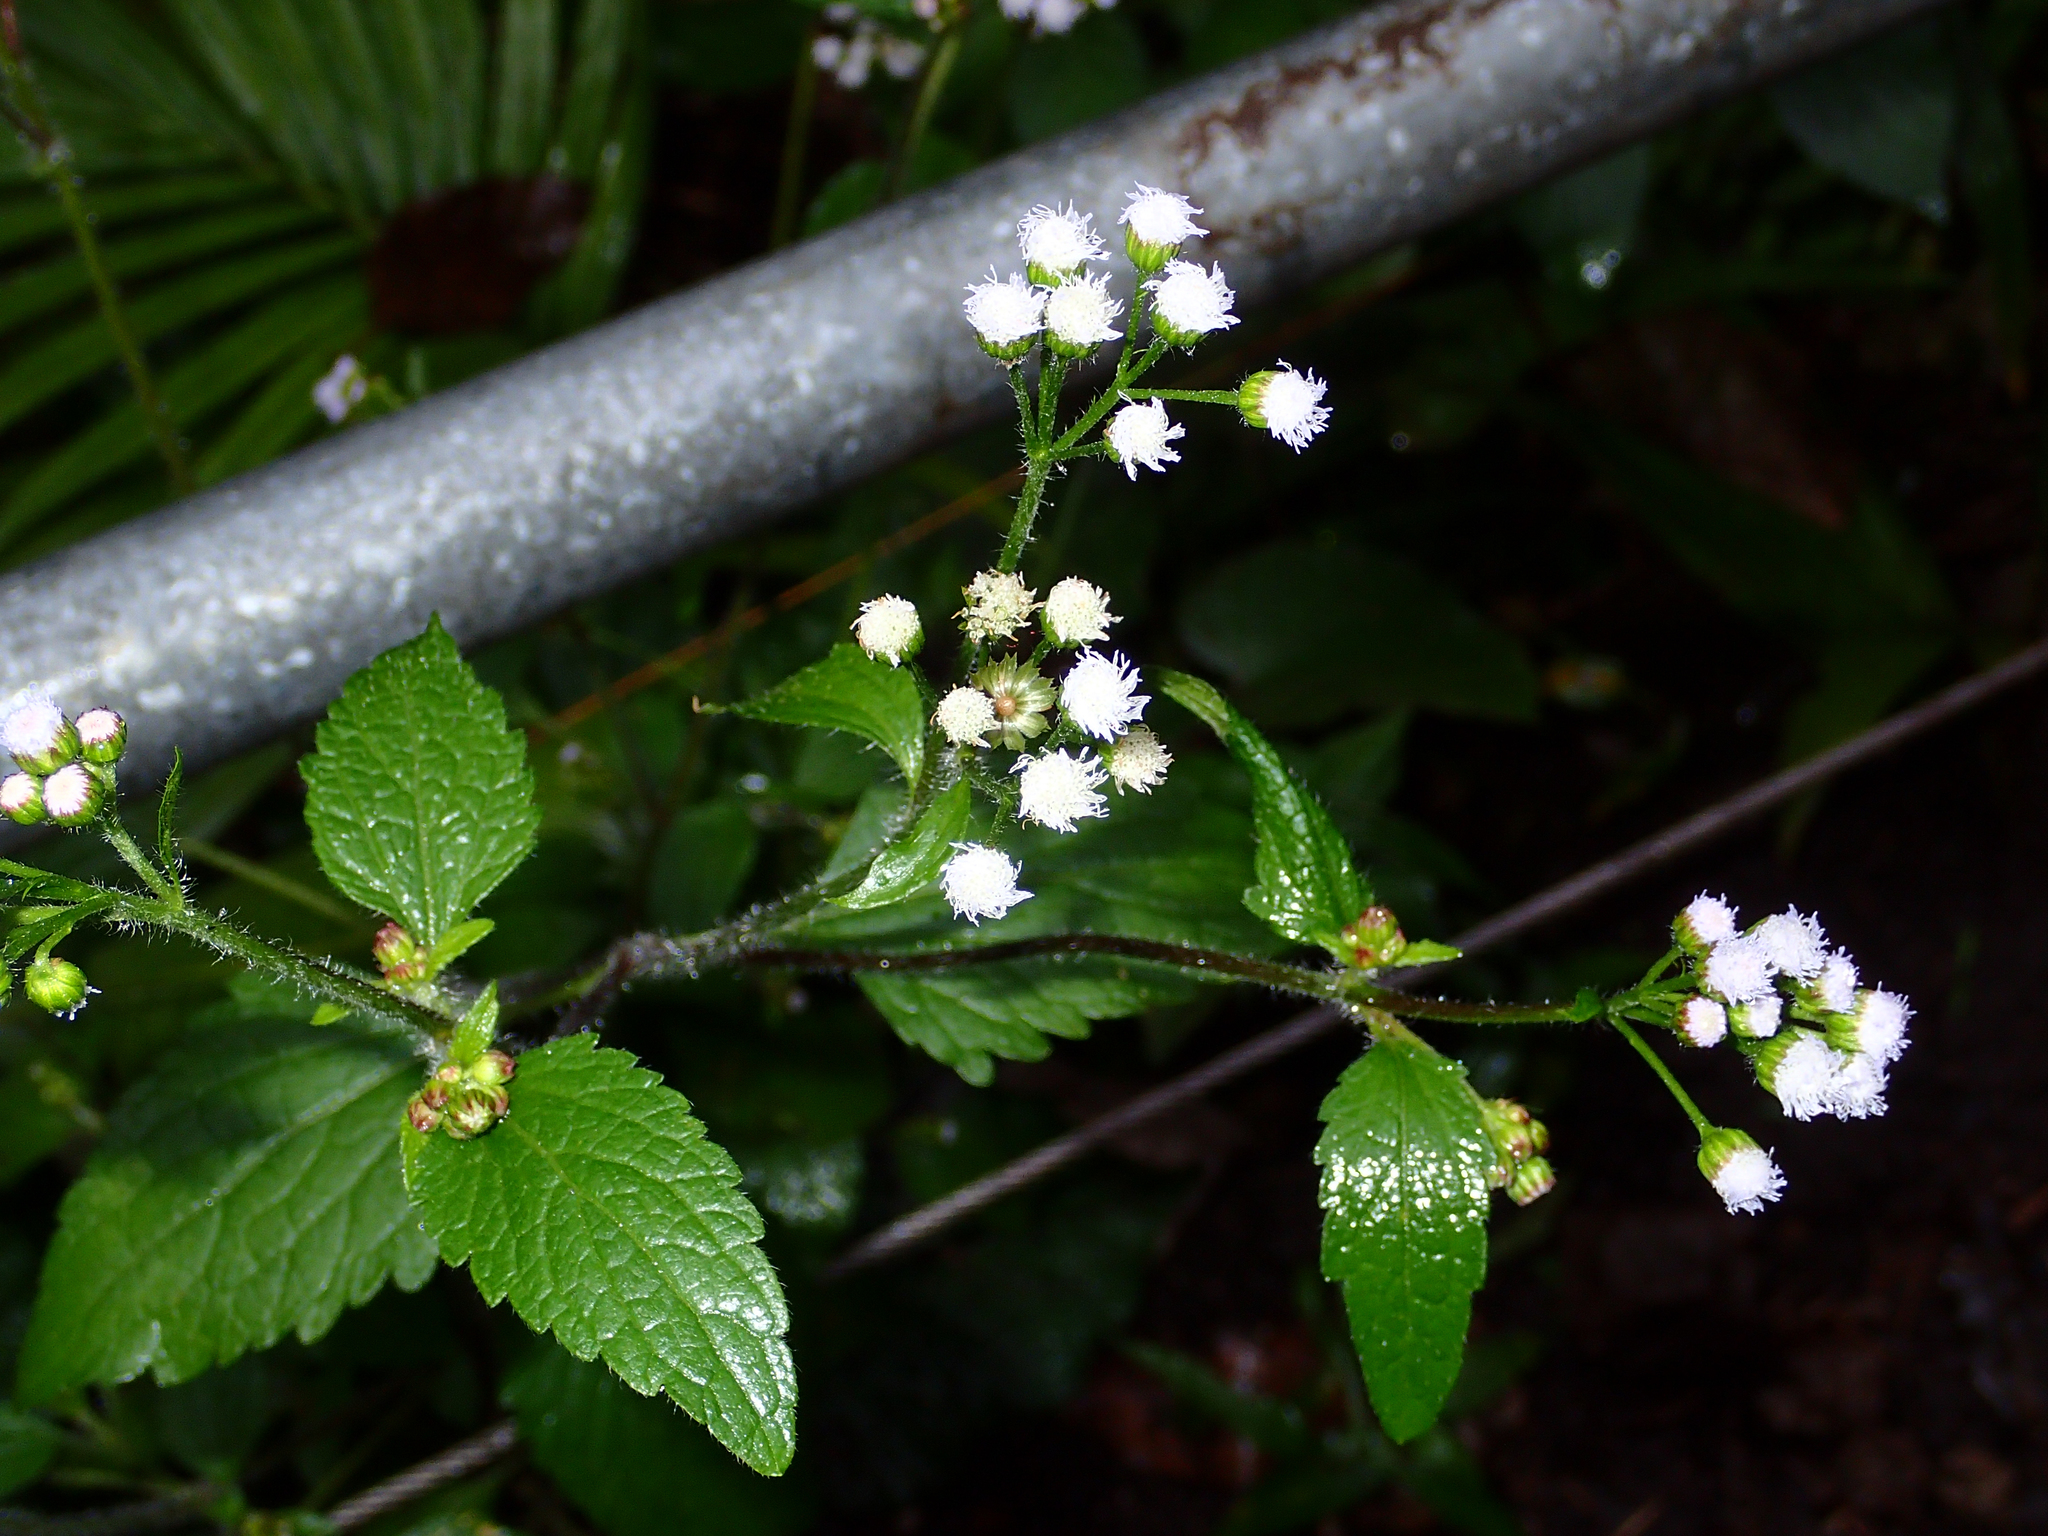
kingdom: Plantae
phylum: Tracheophyta
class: Magnoliopsida
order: Asterales
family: Asteraceae
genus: Ageratum
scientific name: Ageratum houstonianum
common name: Bluemink
